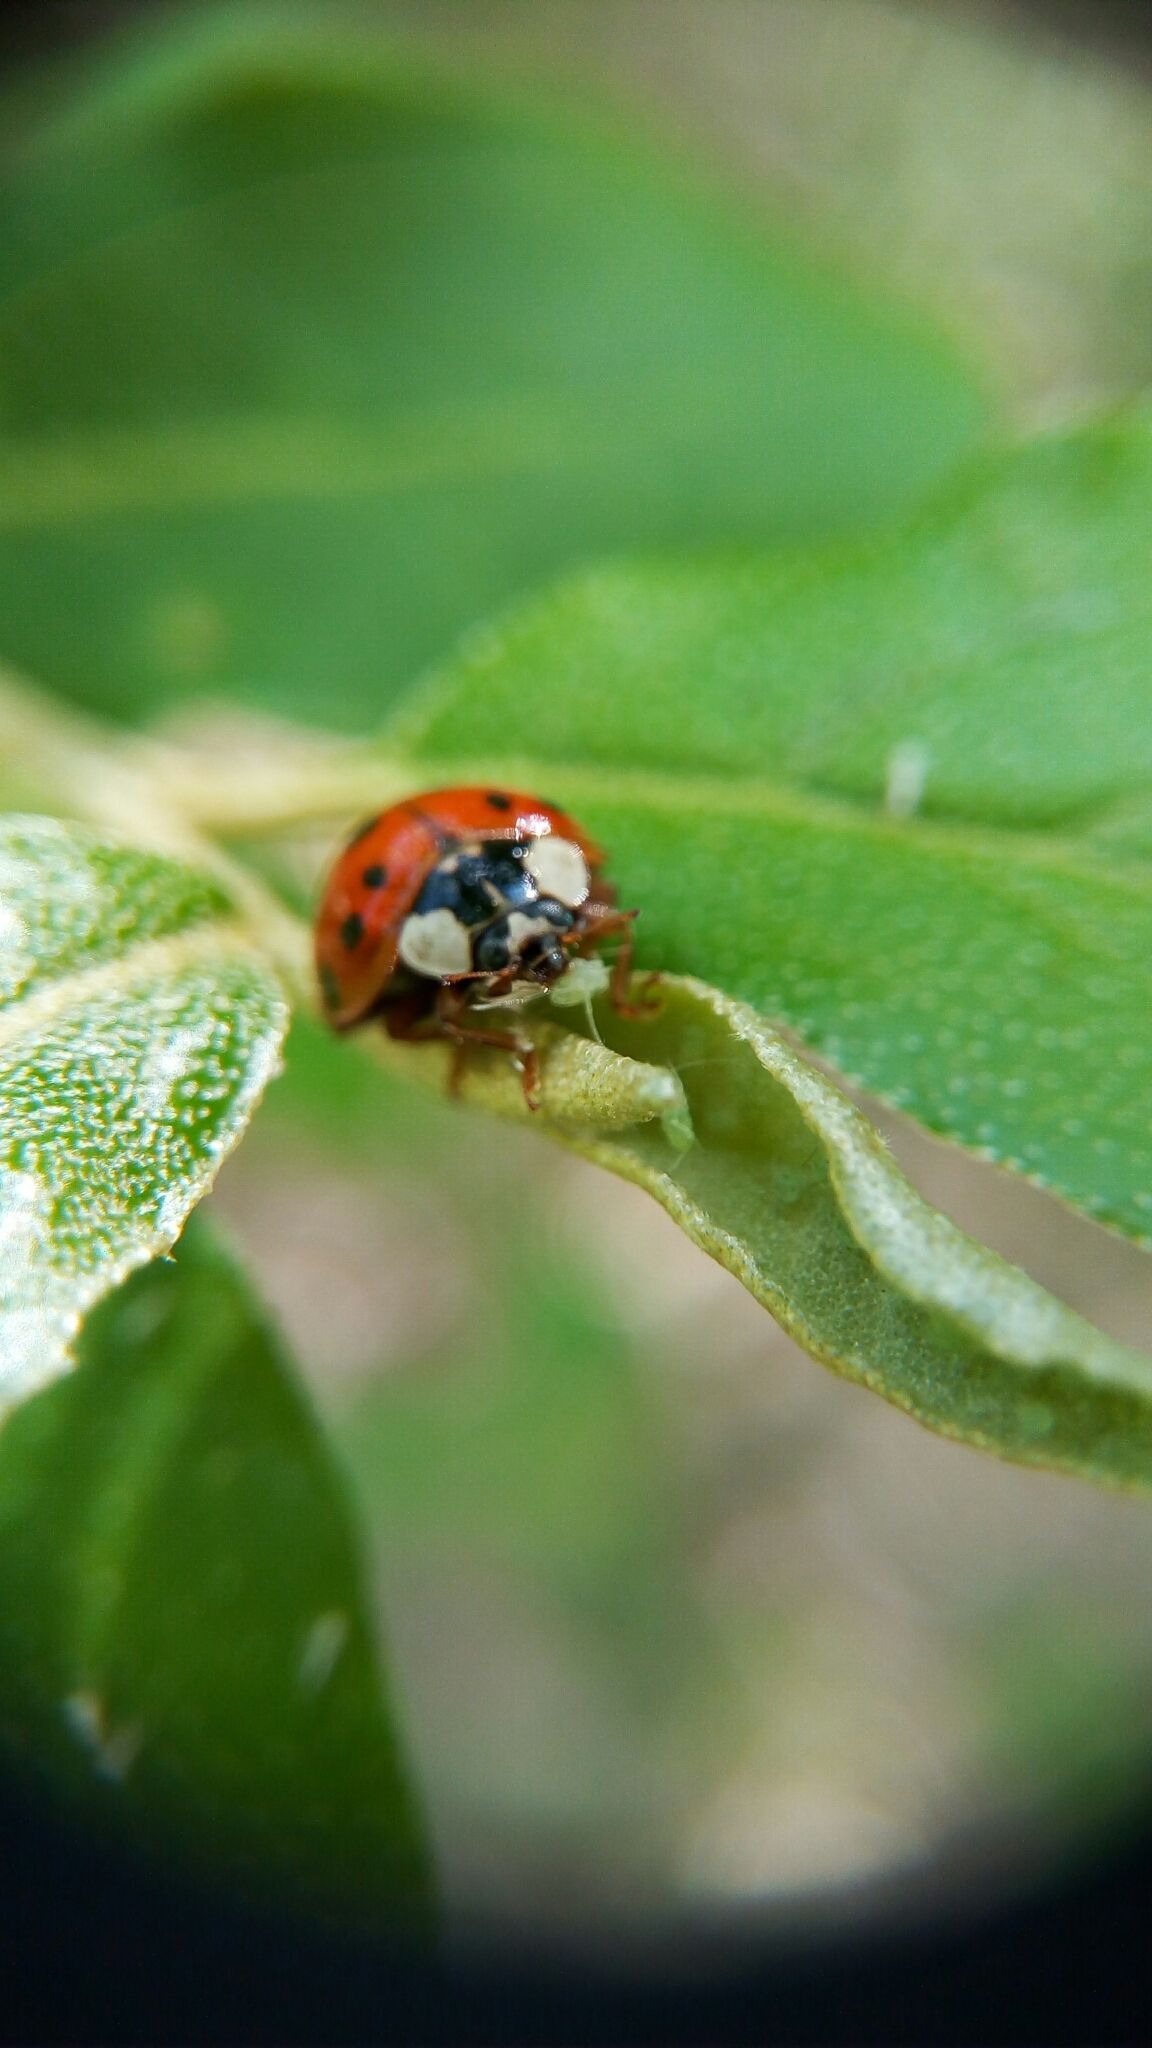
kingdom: Animalia
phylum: Arthropoda
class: Insecta
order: Coleoptera
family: Coccinellidae
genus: Harmonia
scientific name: Harmonia axyridis
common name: Harlequin ladybird
